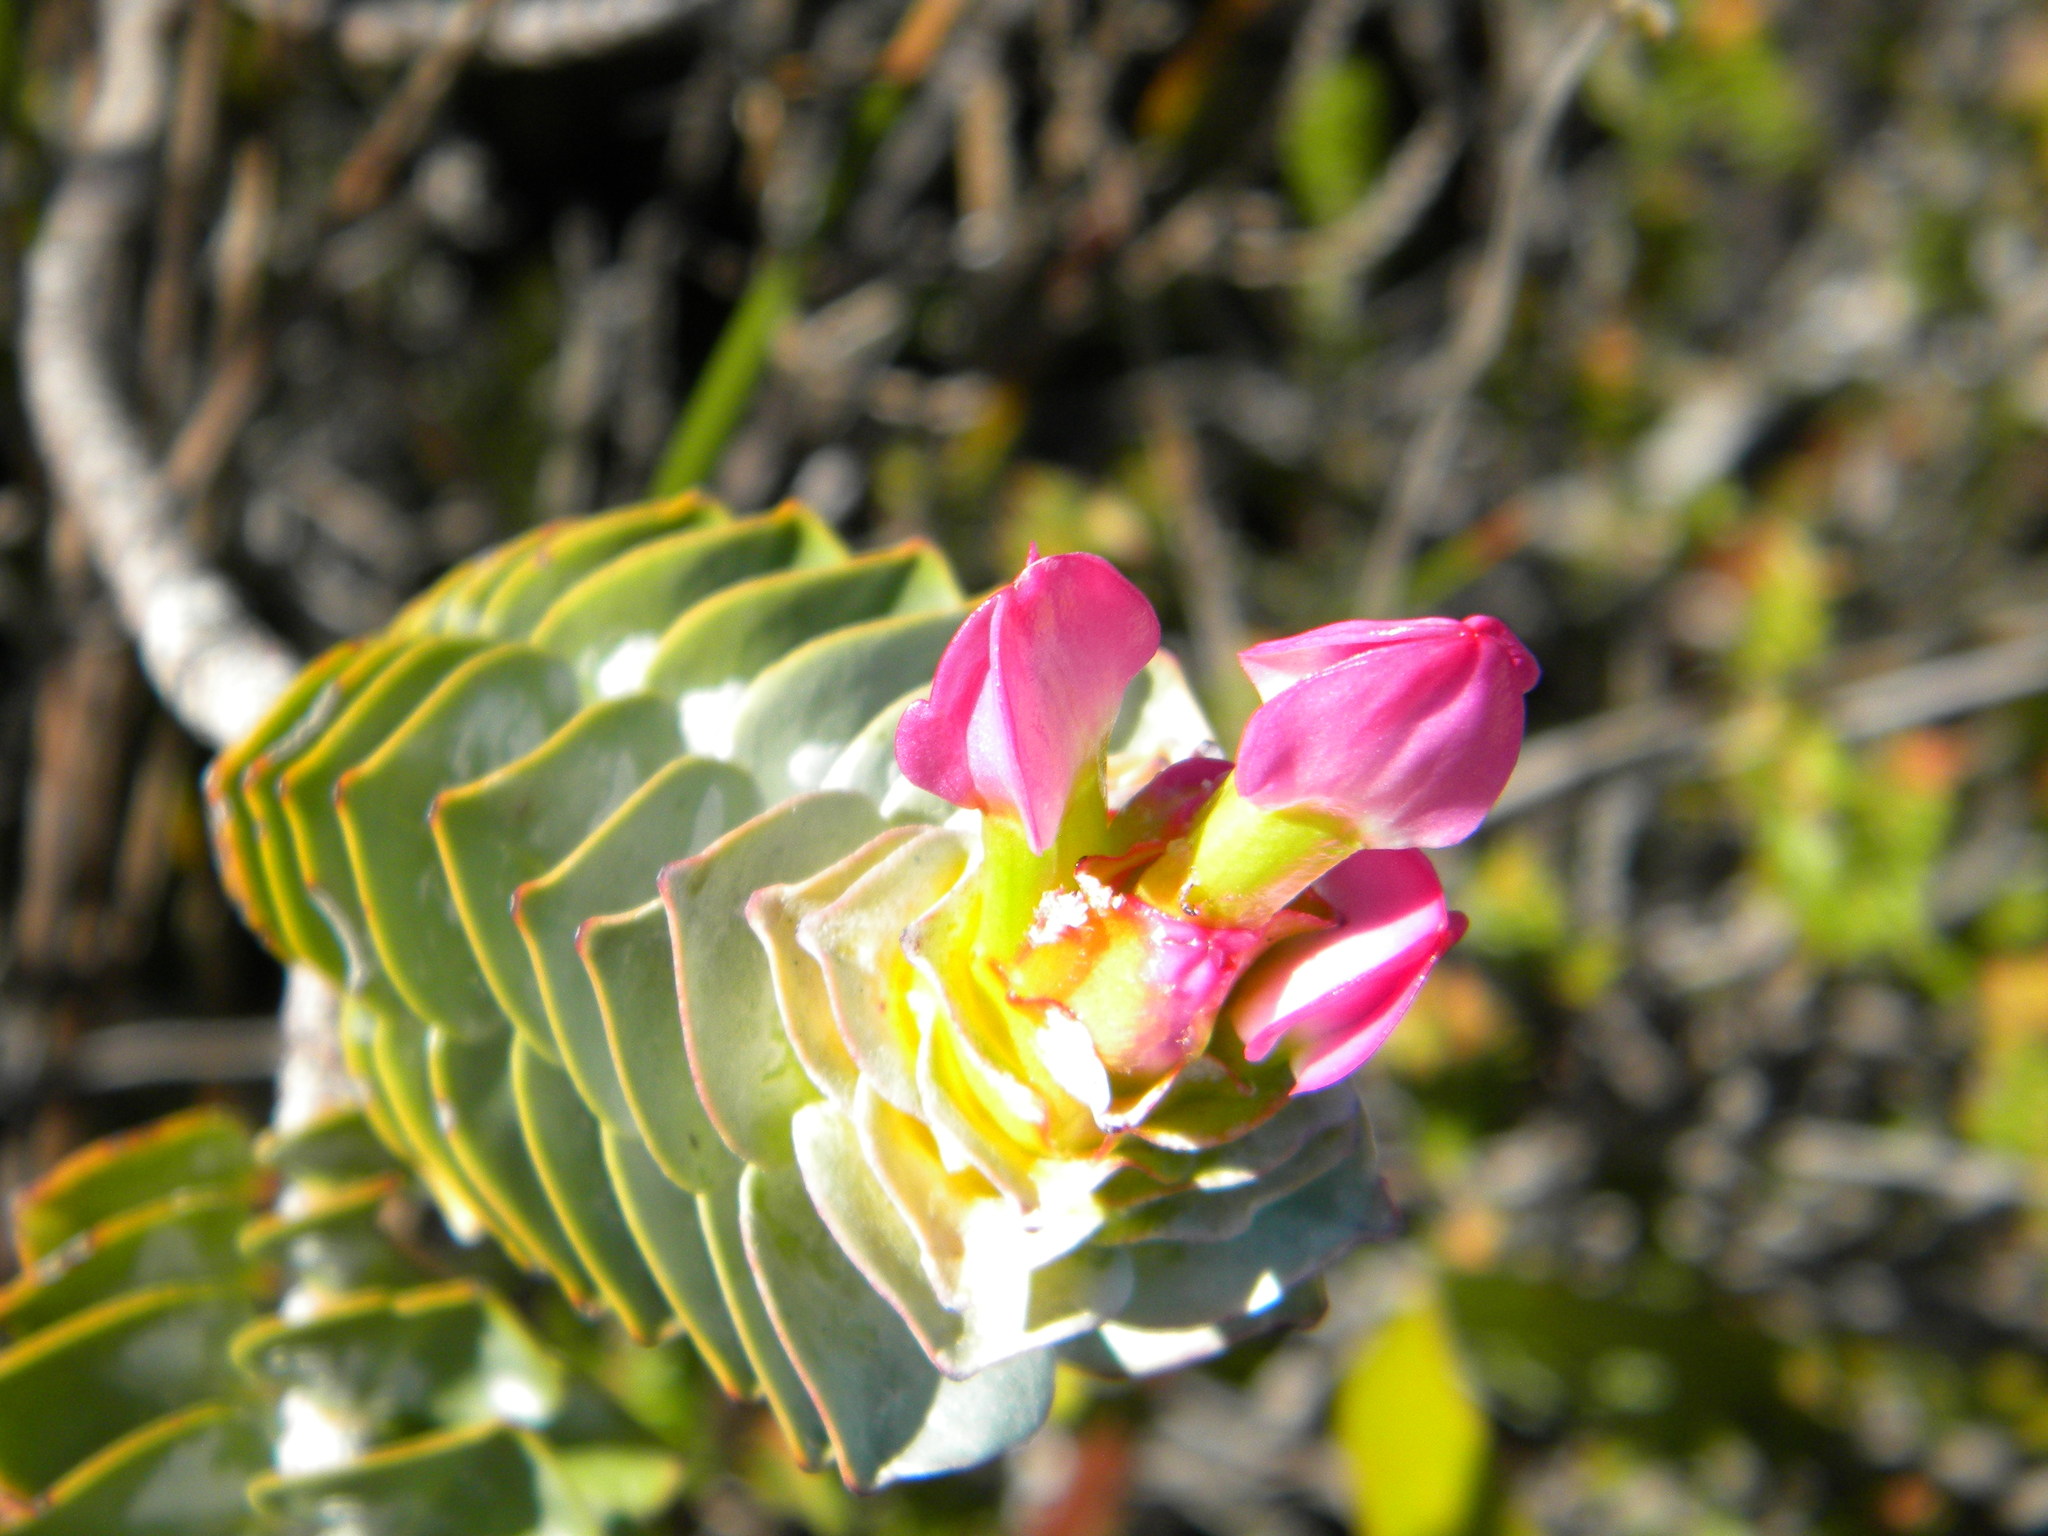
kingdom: Plantae
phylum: Tracheophyta
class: Magnoliopsida
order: Myrtales
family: Penaeaceae
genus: Saltera
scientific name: Saltera sarcocolla
